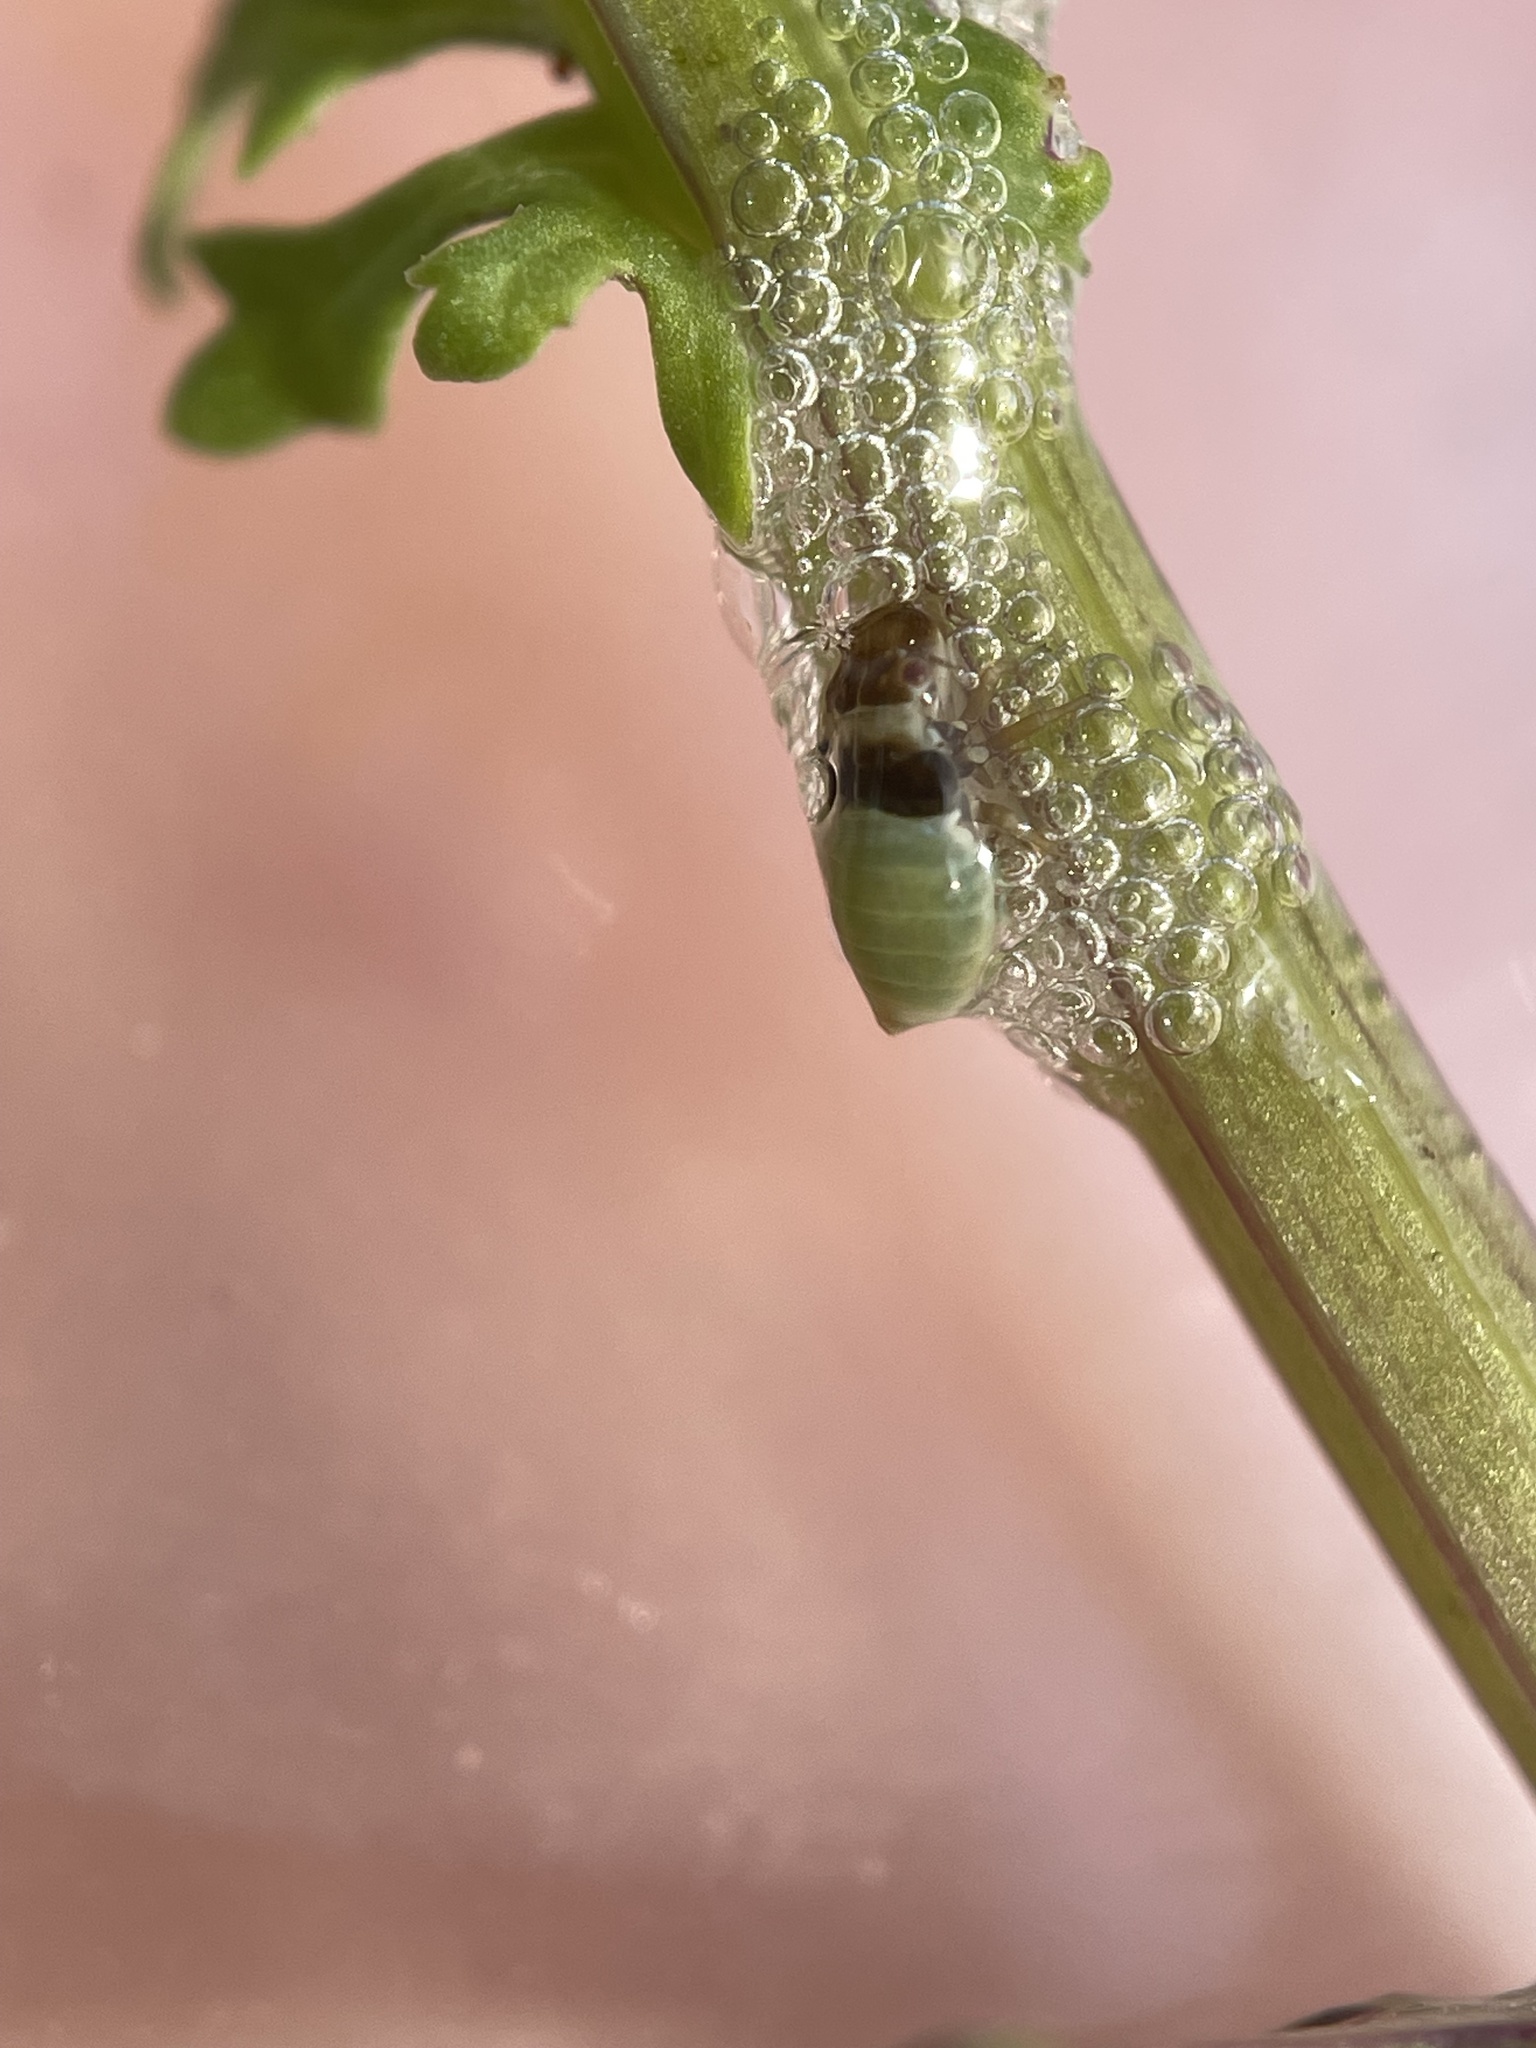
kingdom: Animalia
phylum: Arthropoda
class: Insecta
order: Hemiptera
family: Aphrophoridae
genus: Lepyronia
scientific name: Lepyronia quadrangularis
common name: Diamond-backed spittlebug
